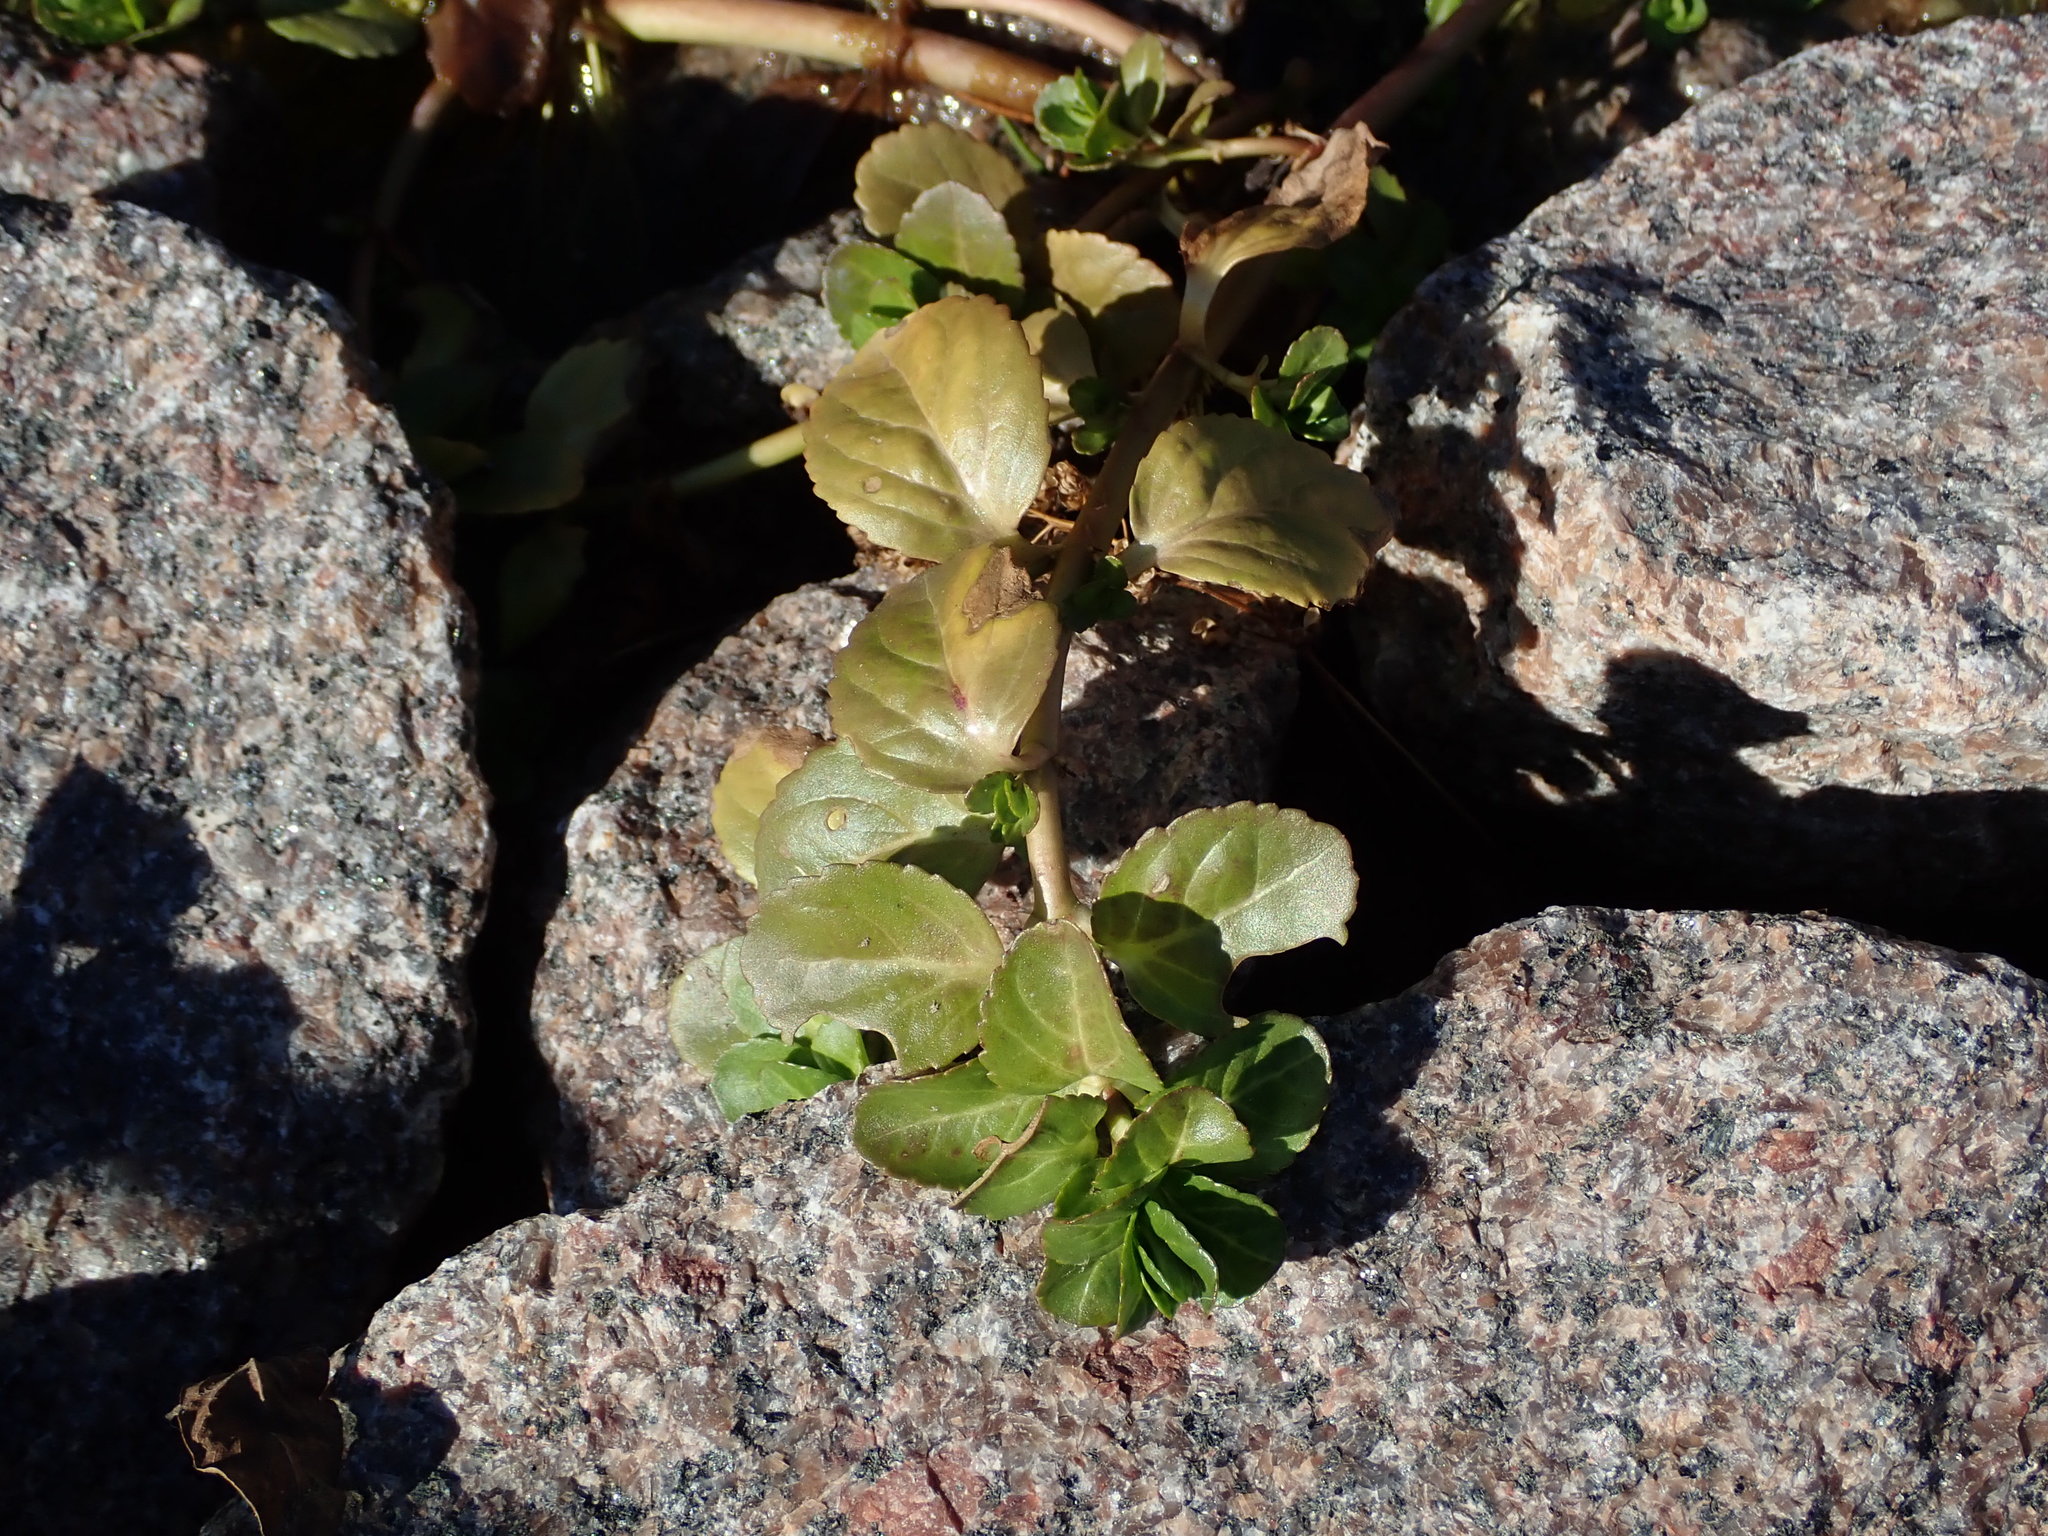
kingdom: Plantae
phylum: Tracheophyta
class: Magnoliopsida
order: Lamiales
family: Plantaginaceae
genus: Veronica
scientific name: Veronica beccabunga
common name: Brooklime
